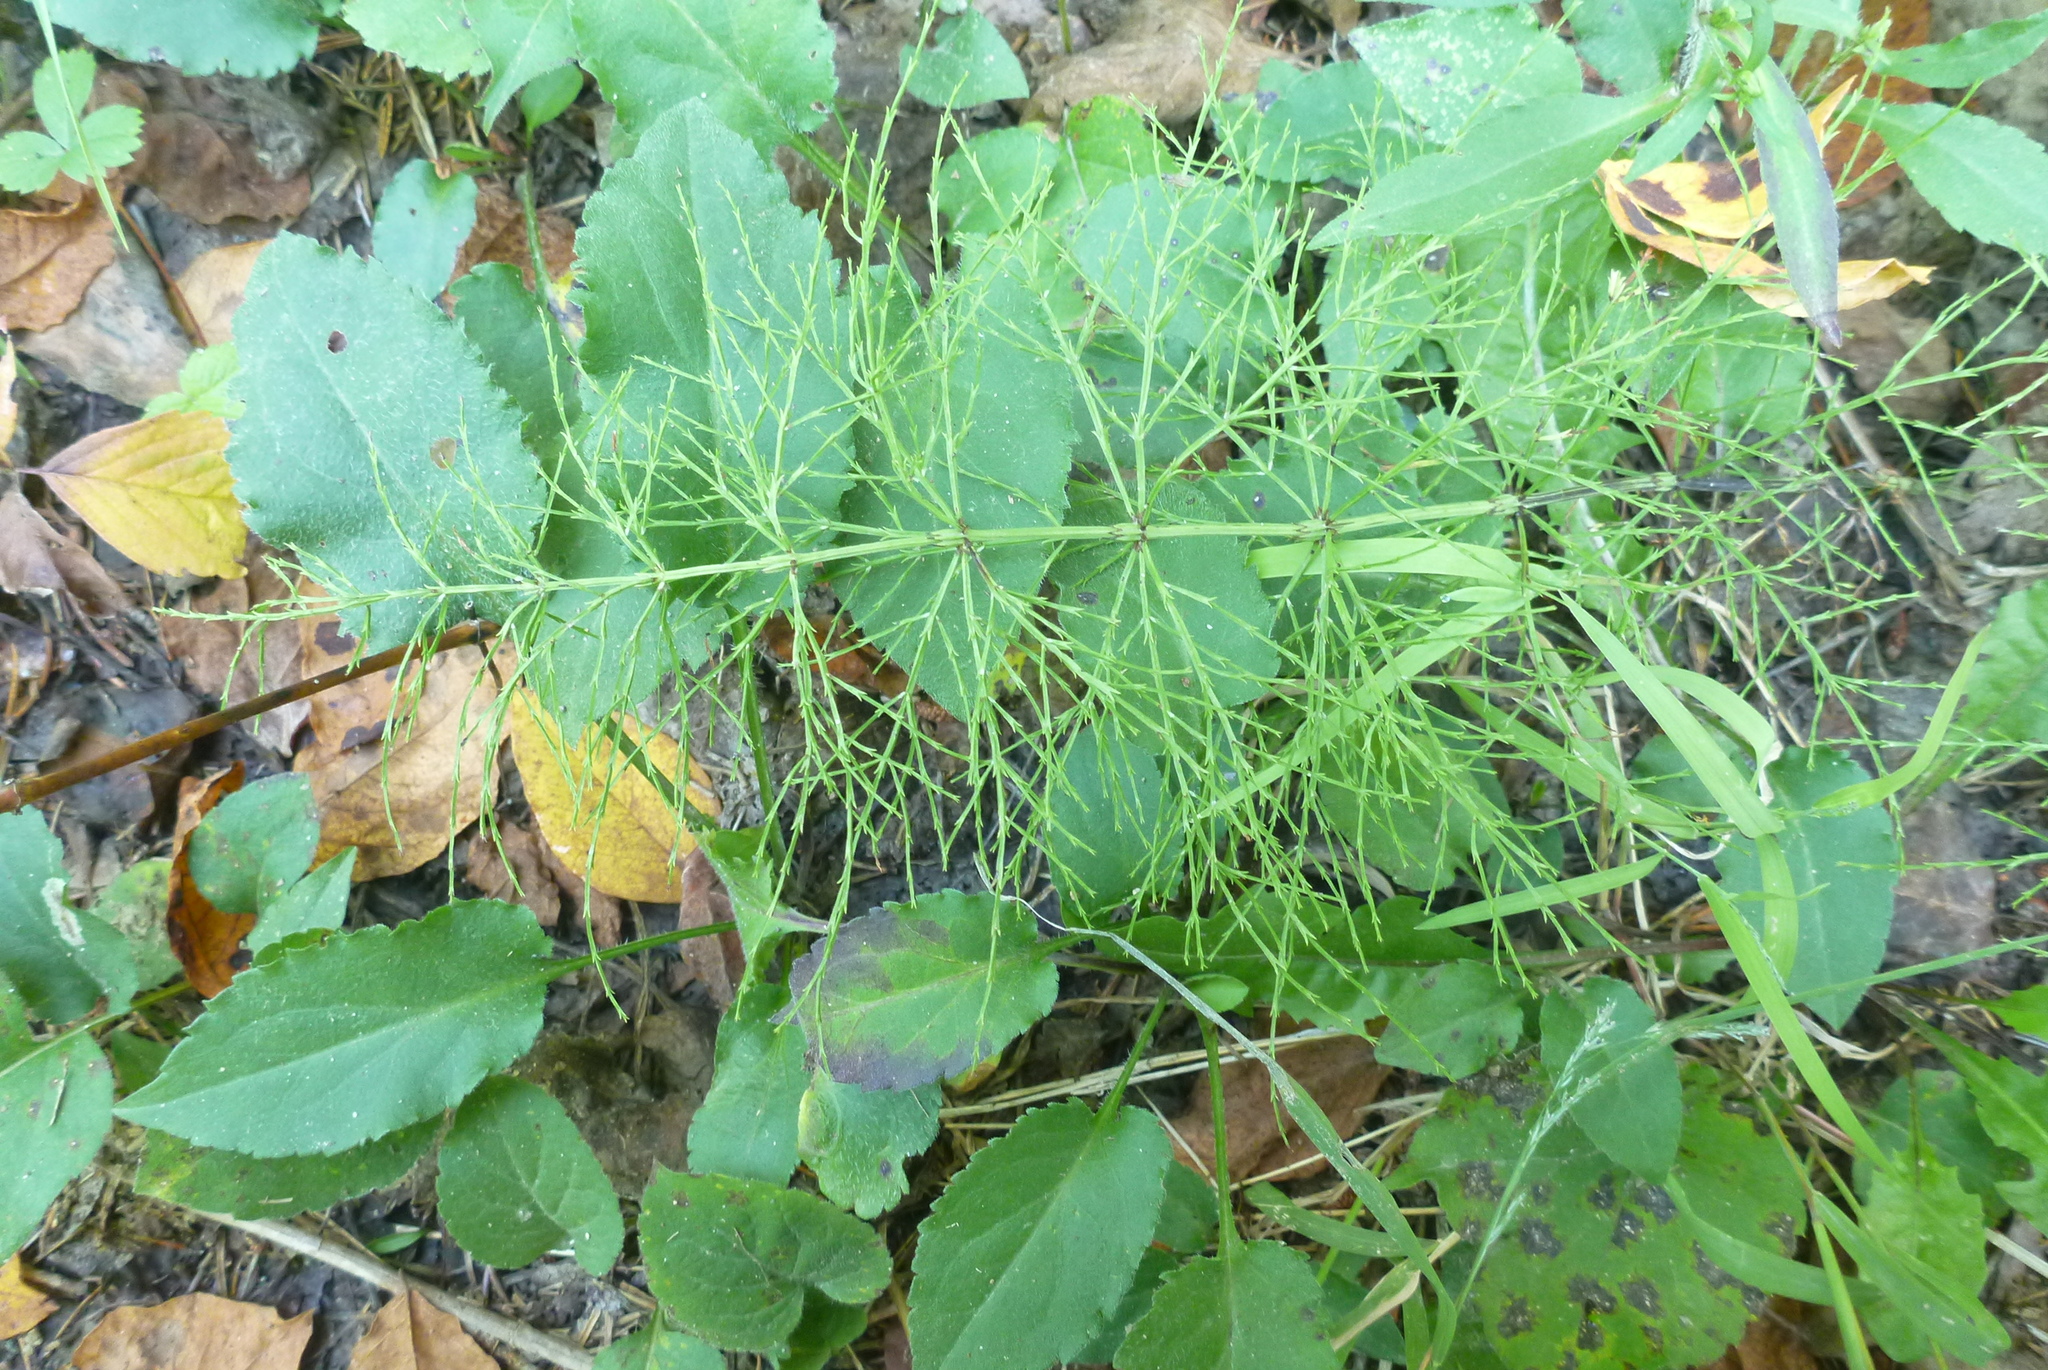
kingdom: Plantae
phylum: Tracheophyta
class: Polypodiopsida
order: Equisetales
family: Equisetaceae
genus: Equisetum
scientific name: Equisetum sylvaticum
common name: Wood horsetail
